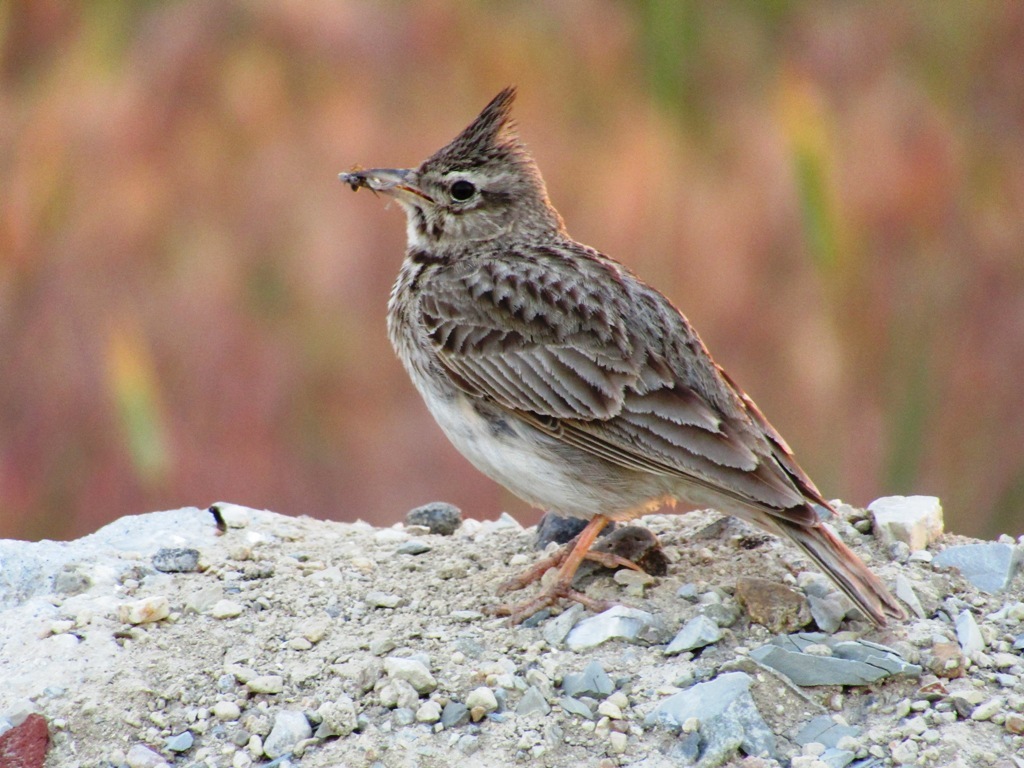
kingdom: Animalia
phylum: Chordata
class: Aves
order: Passeriformes
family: Alaudidae
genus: Galerida
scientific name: Galerida cristata
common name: Crested lark
